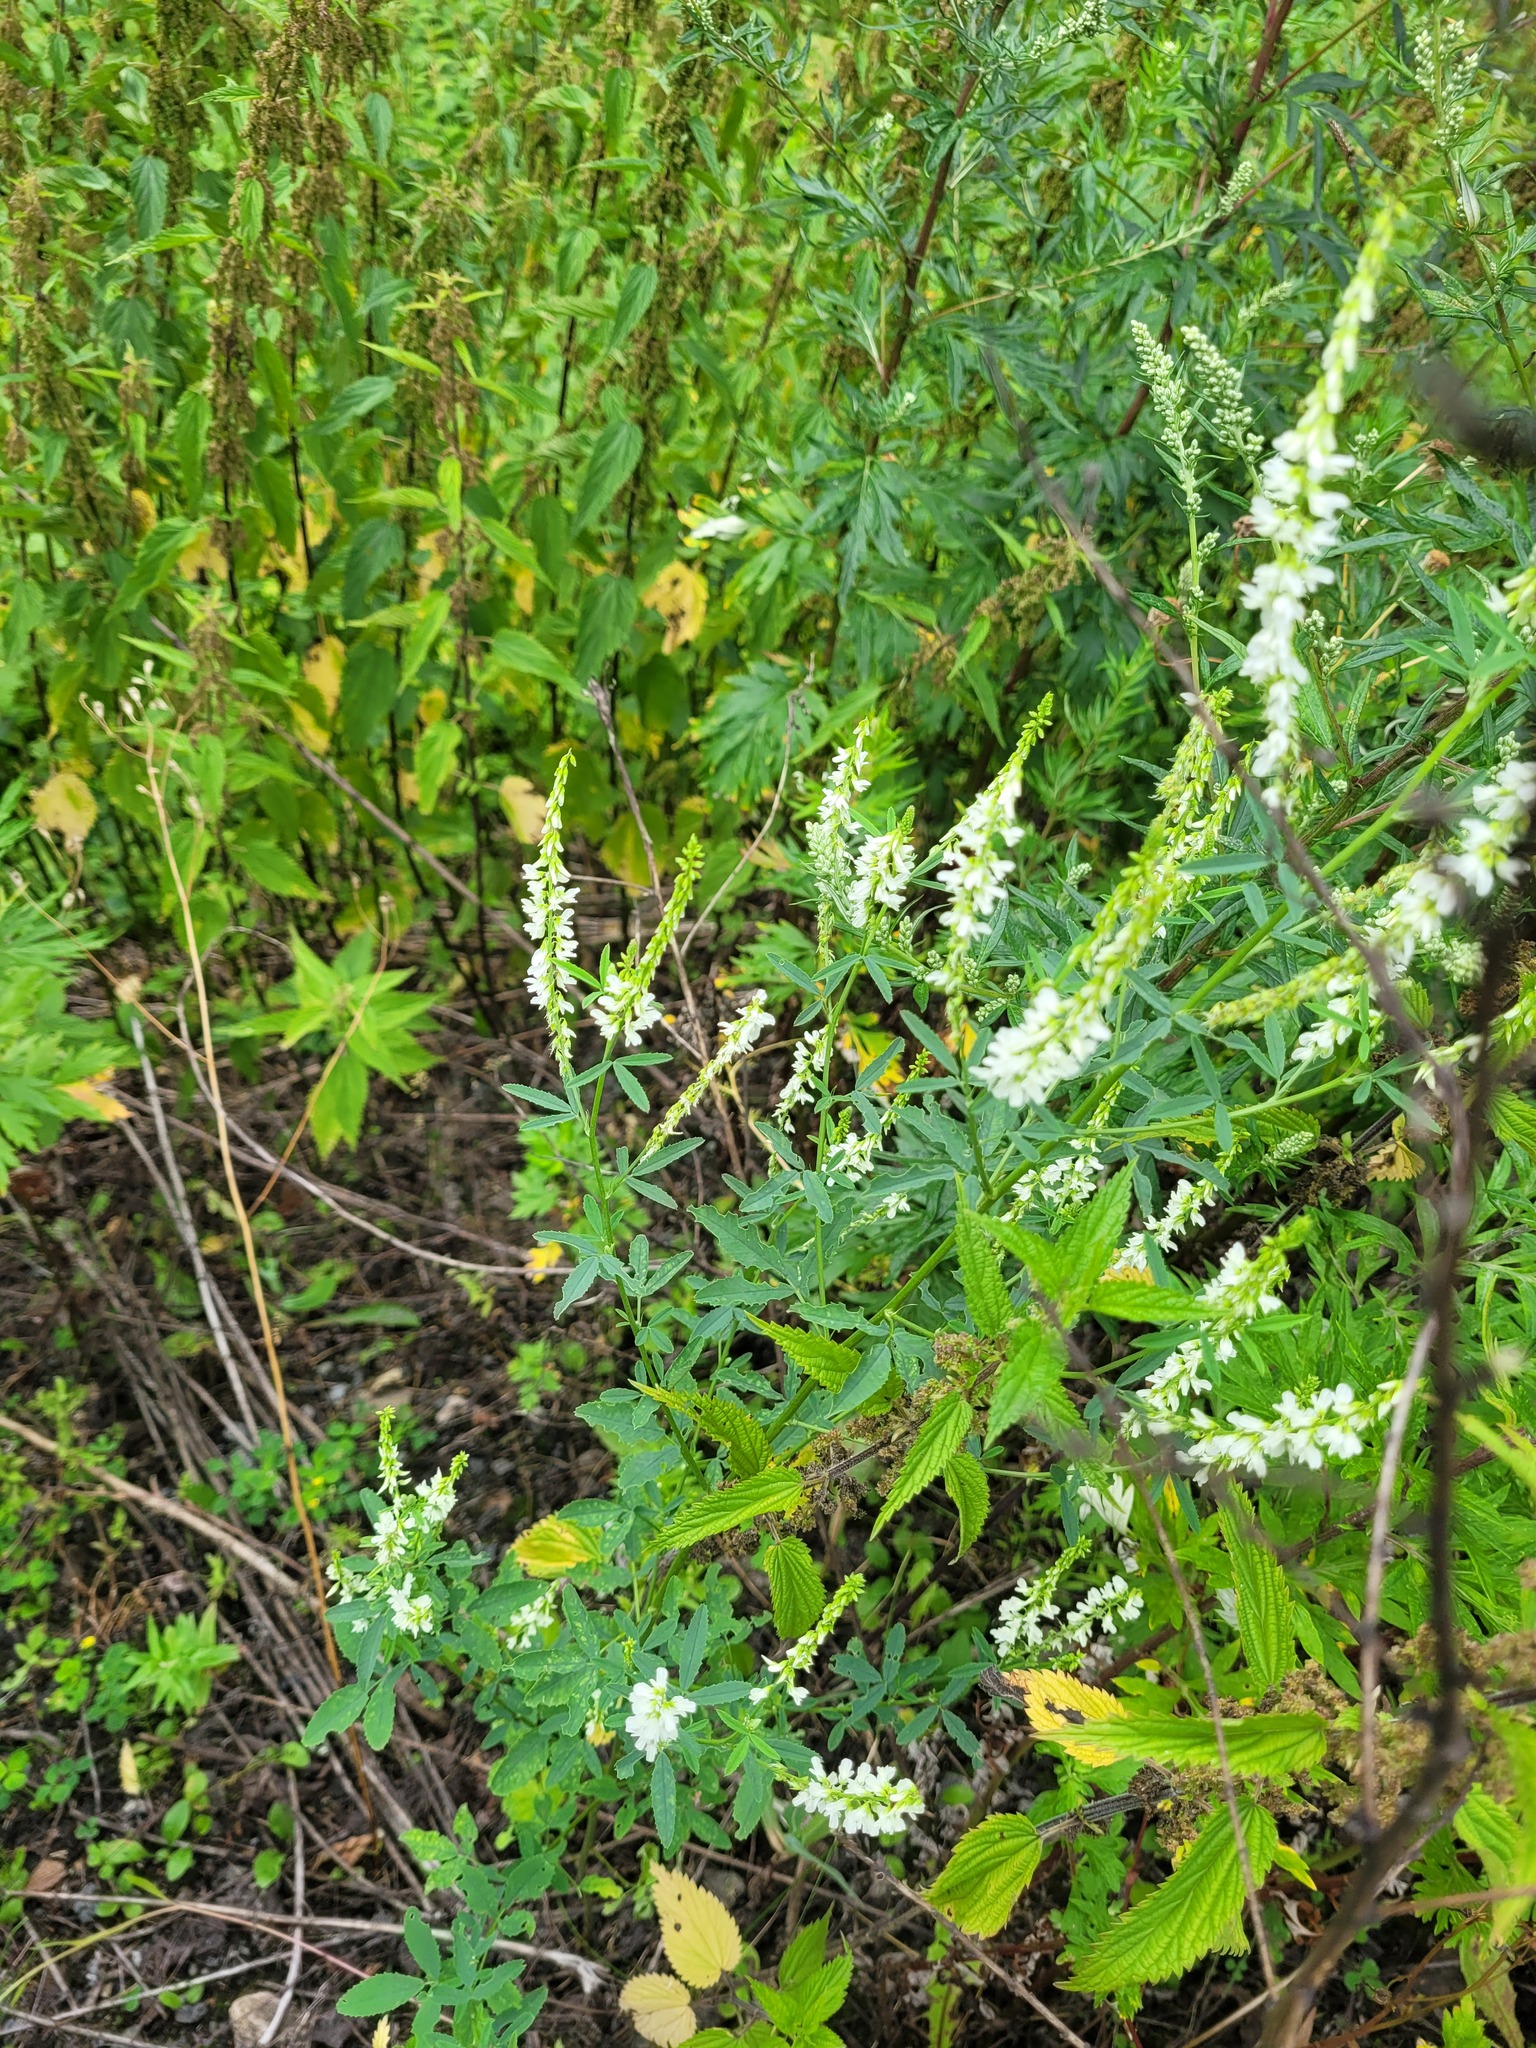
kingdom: Plantae
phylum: Tracheophyta
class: Magnoliopsida
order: Fabales
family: Fabaceae
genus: Melilotus
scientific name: Melilotus albus
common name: White melilot
